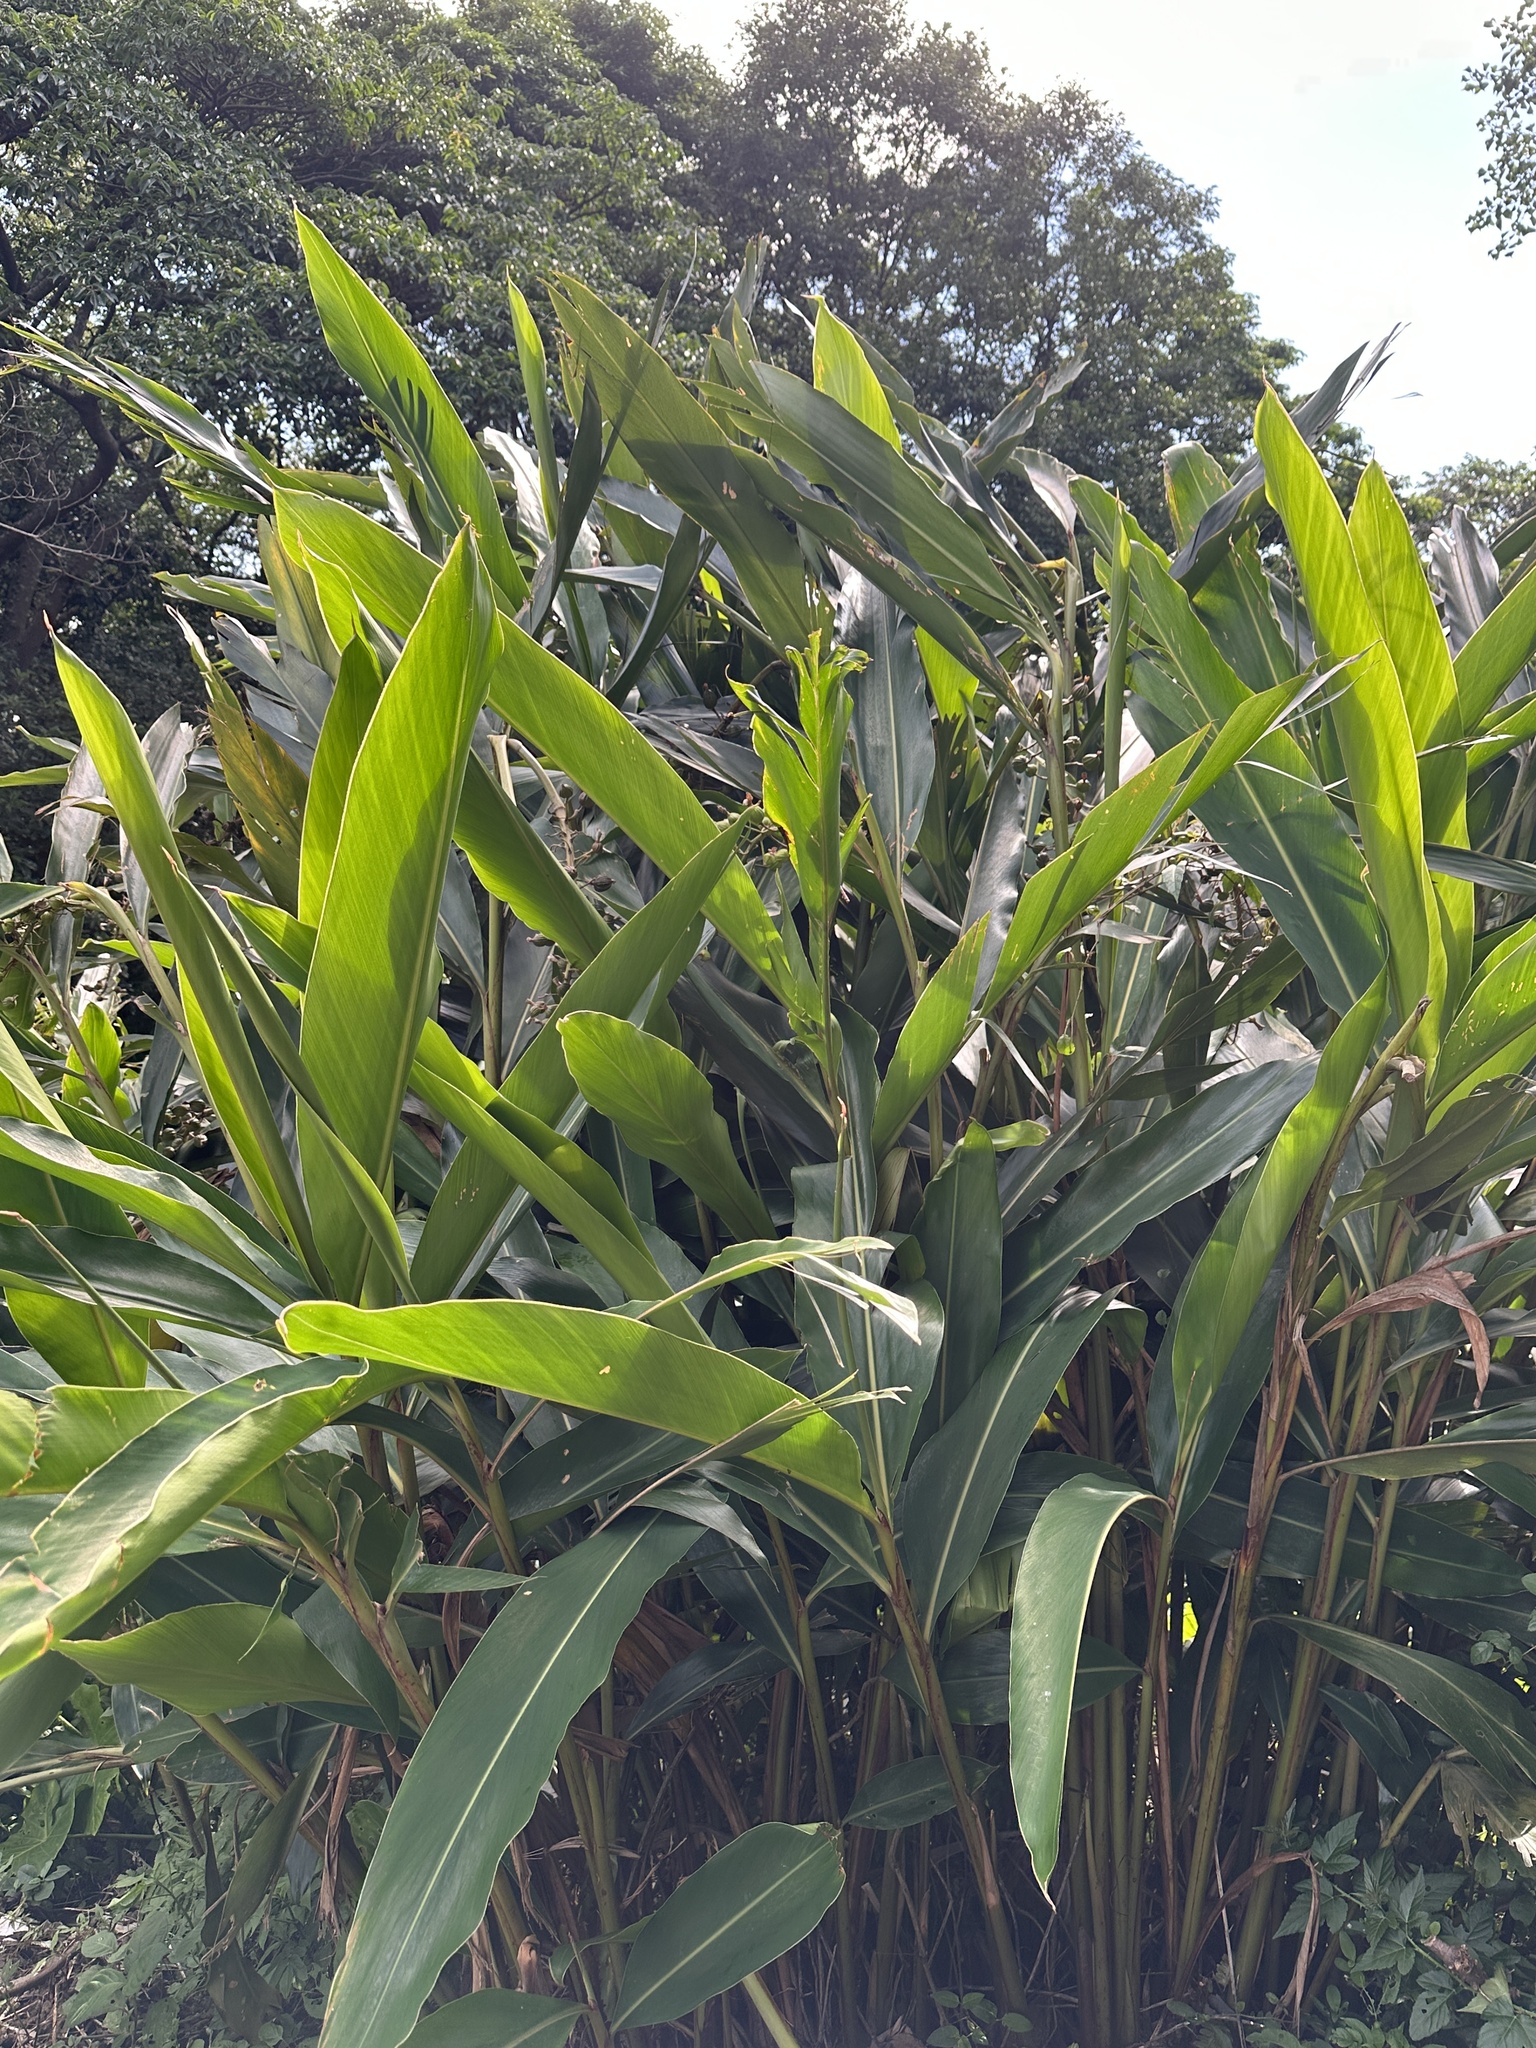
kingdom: Plantae
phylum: Tracheophyta
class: Liliopsida
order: Zingiberales
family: Zingiberaceae
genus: Alpinia
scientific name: Alpinia zerumbet
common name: Shellplant
